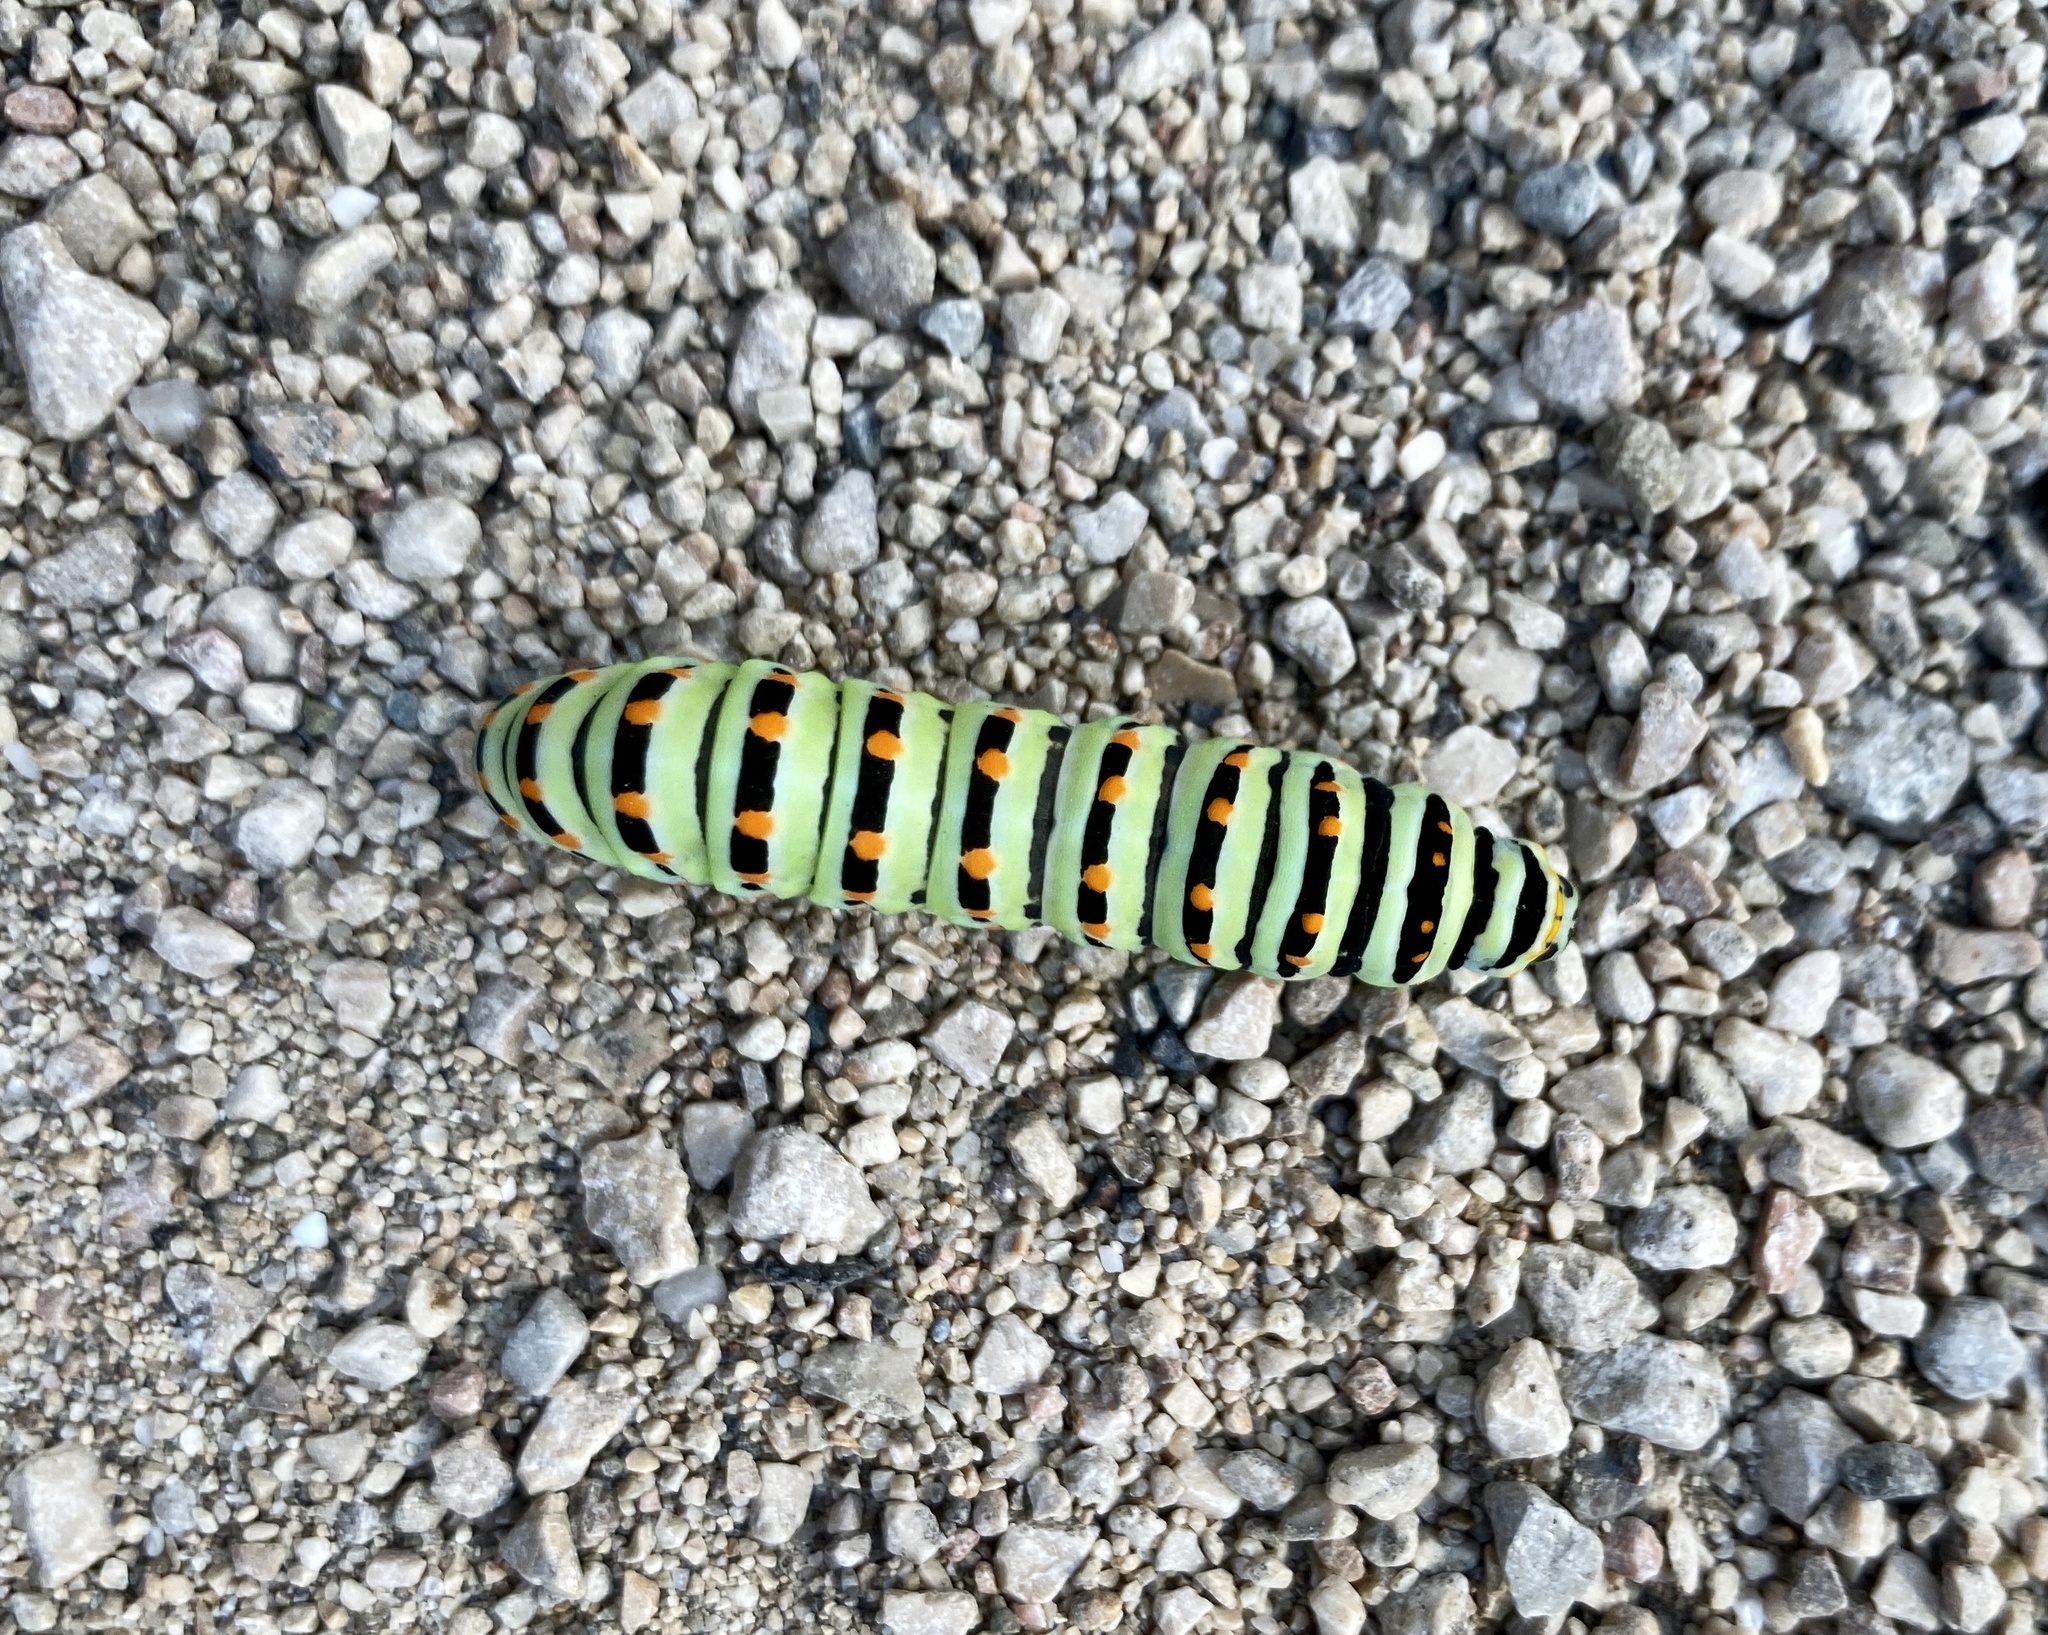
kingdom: Animalia
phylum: Arthropoda
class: Insecta
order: Lepidoptera
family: Papilionidae
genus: Papilio
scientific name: Papilio machaon
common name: Swallowtail
